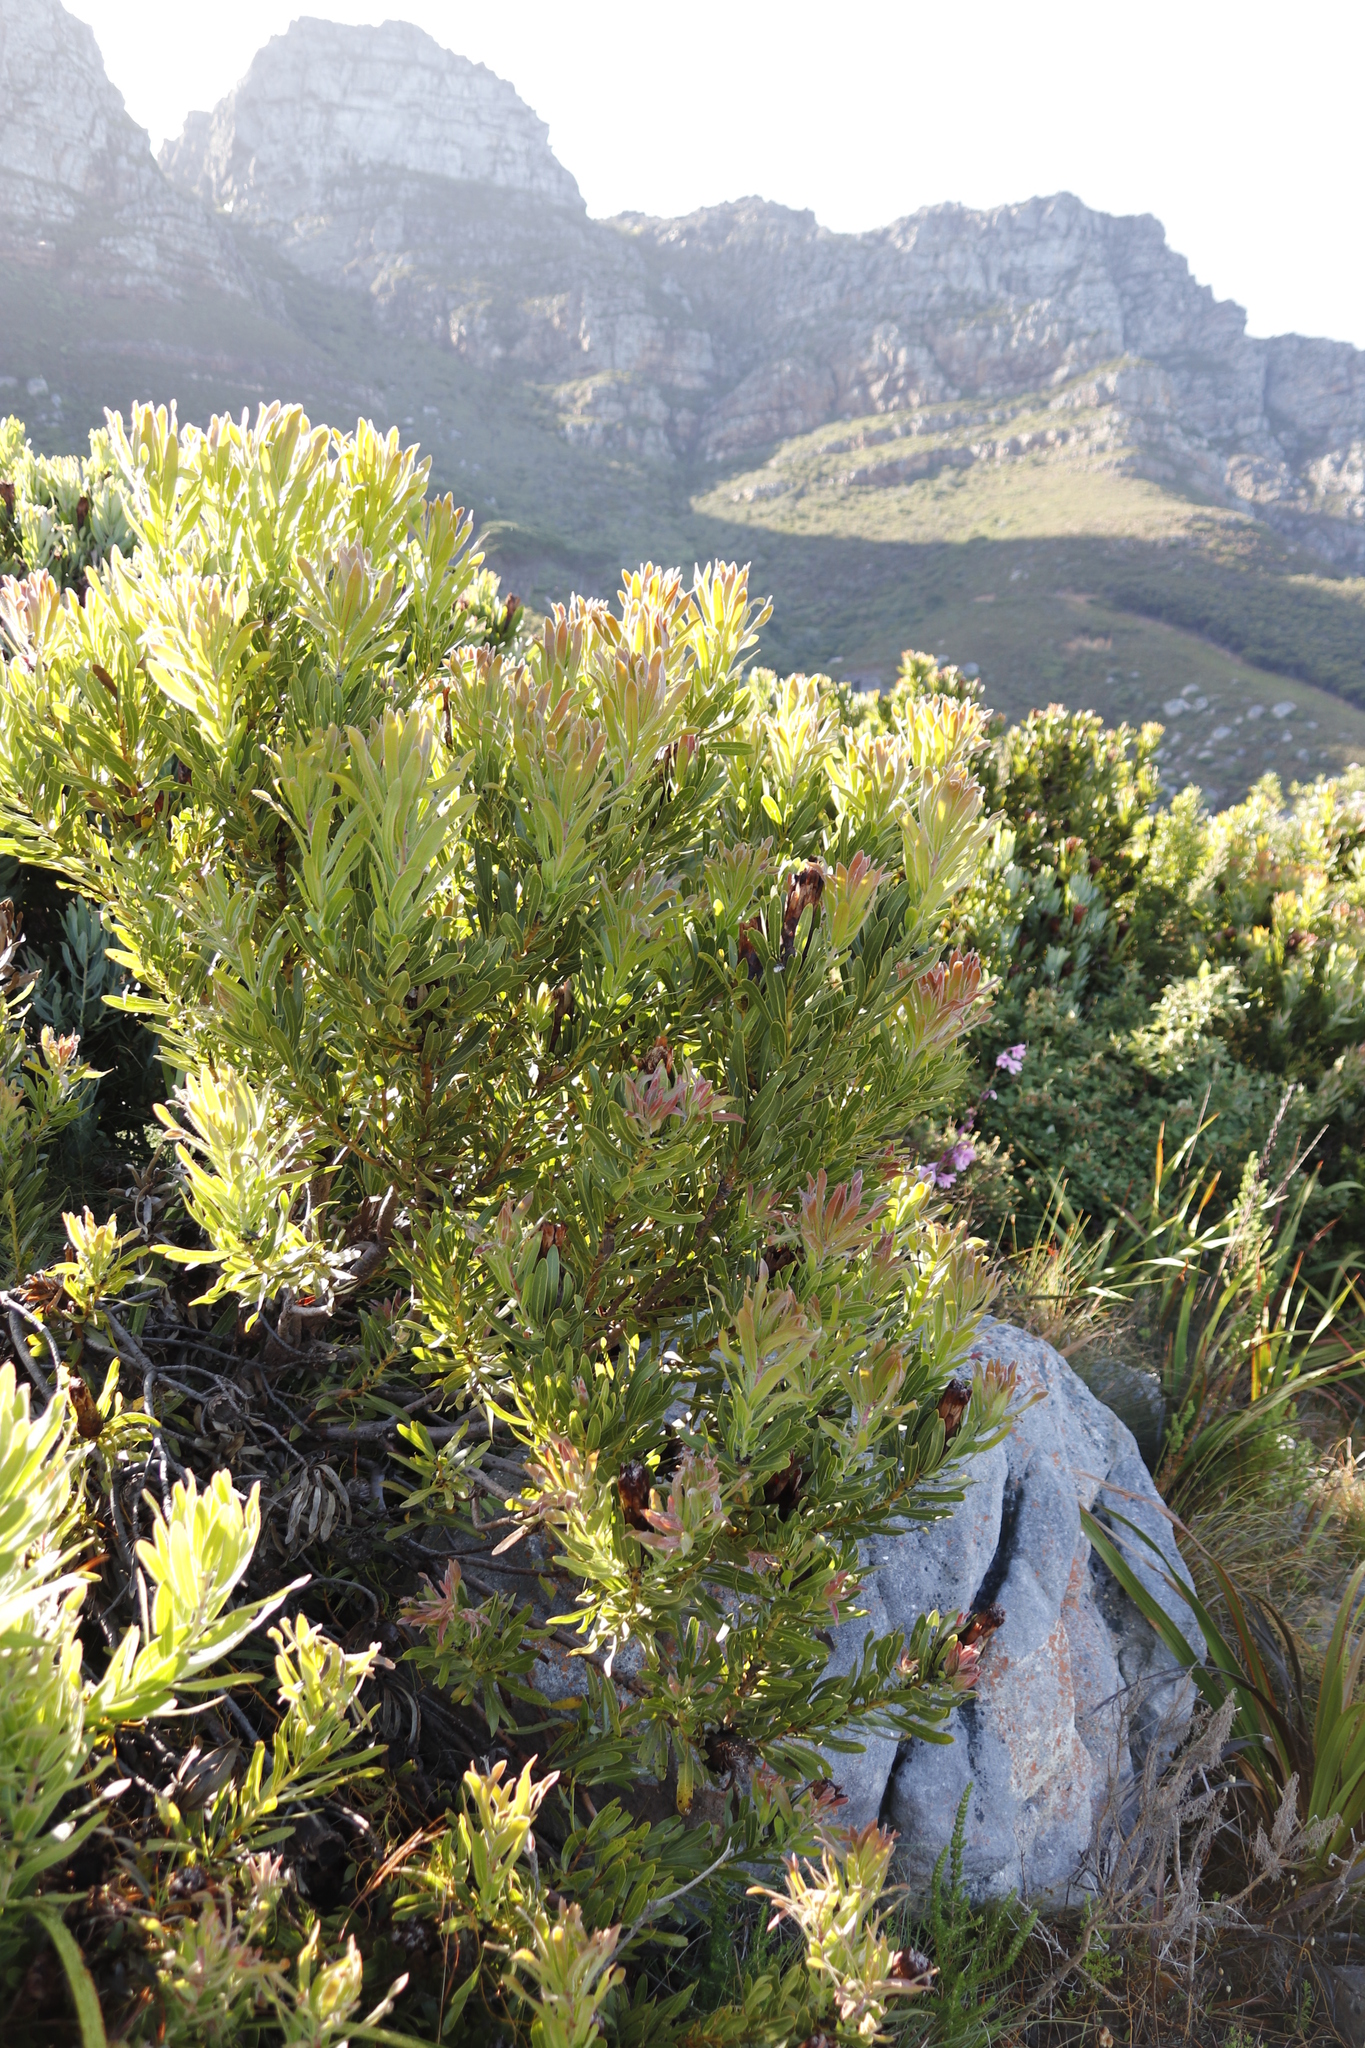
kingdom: Plantae
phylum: Tracheophyta
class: Magnoliopsida
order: Proteales
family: Proteaceae
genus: Protea
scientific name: Protea lepidocarpodendron
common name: Black-bearded protea
